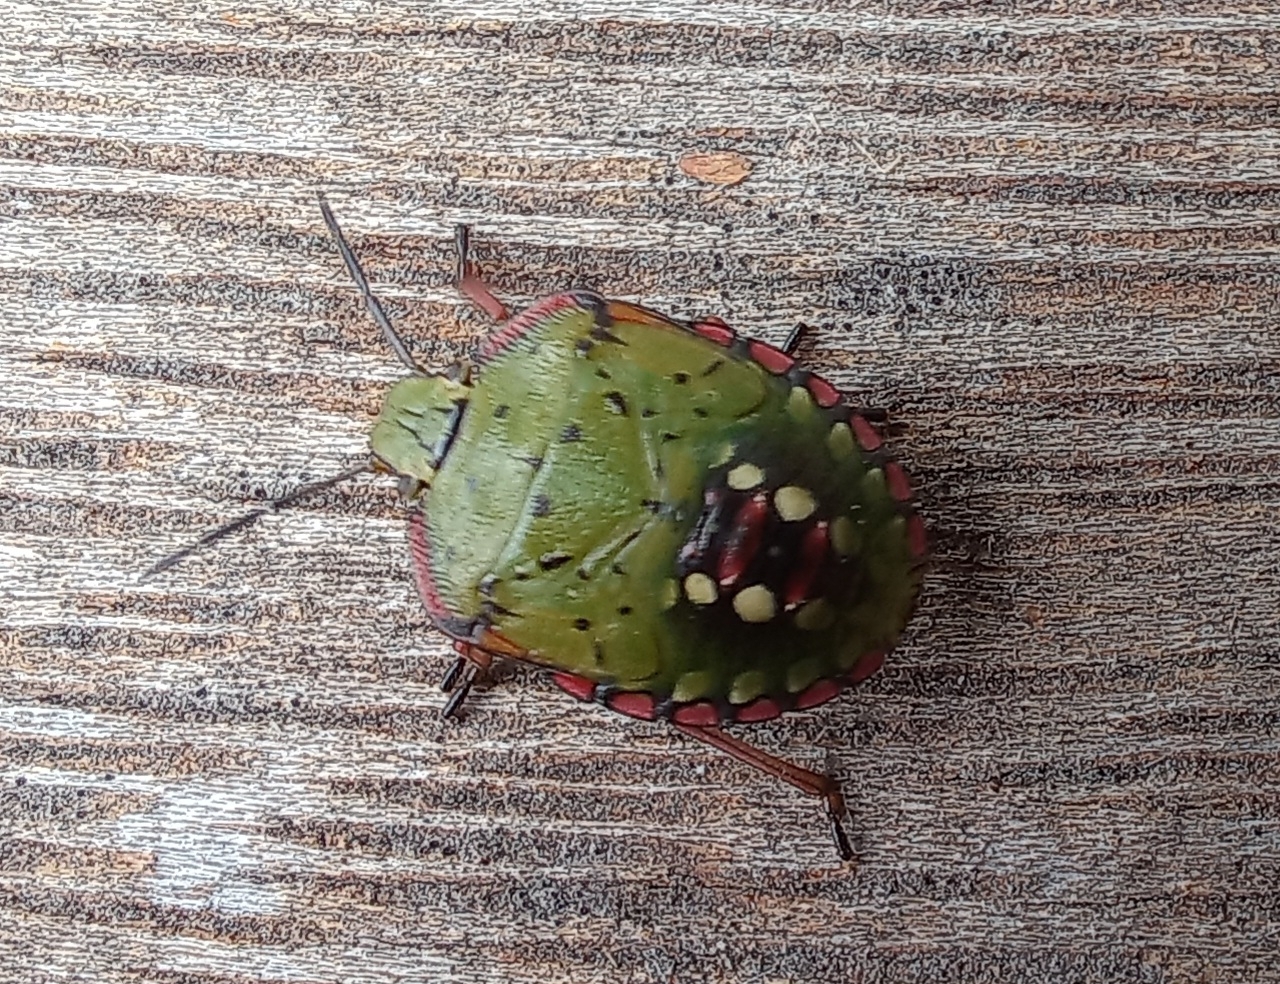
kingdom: Animalia
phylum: Arthropoda
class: Insecta
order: Hemiptera
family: Pentatomidae
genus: Nezara
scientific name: Nezara viridula
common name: Southern green stink bug
